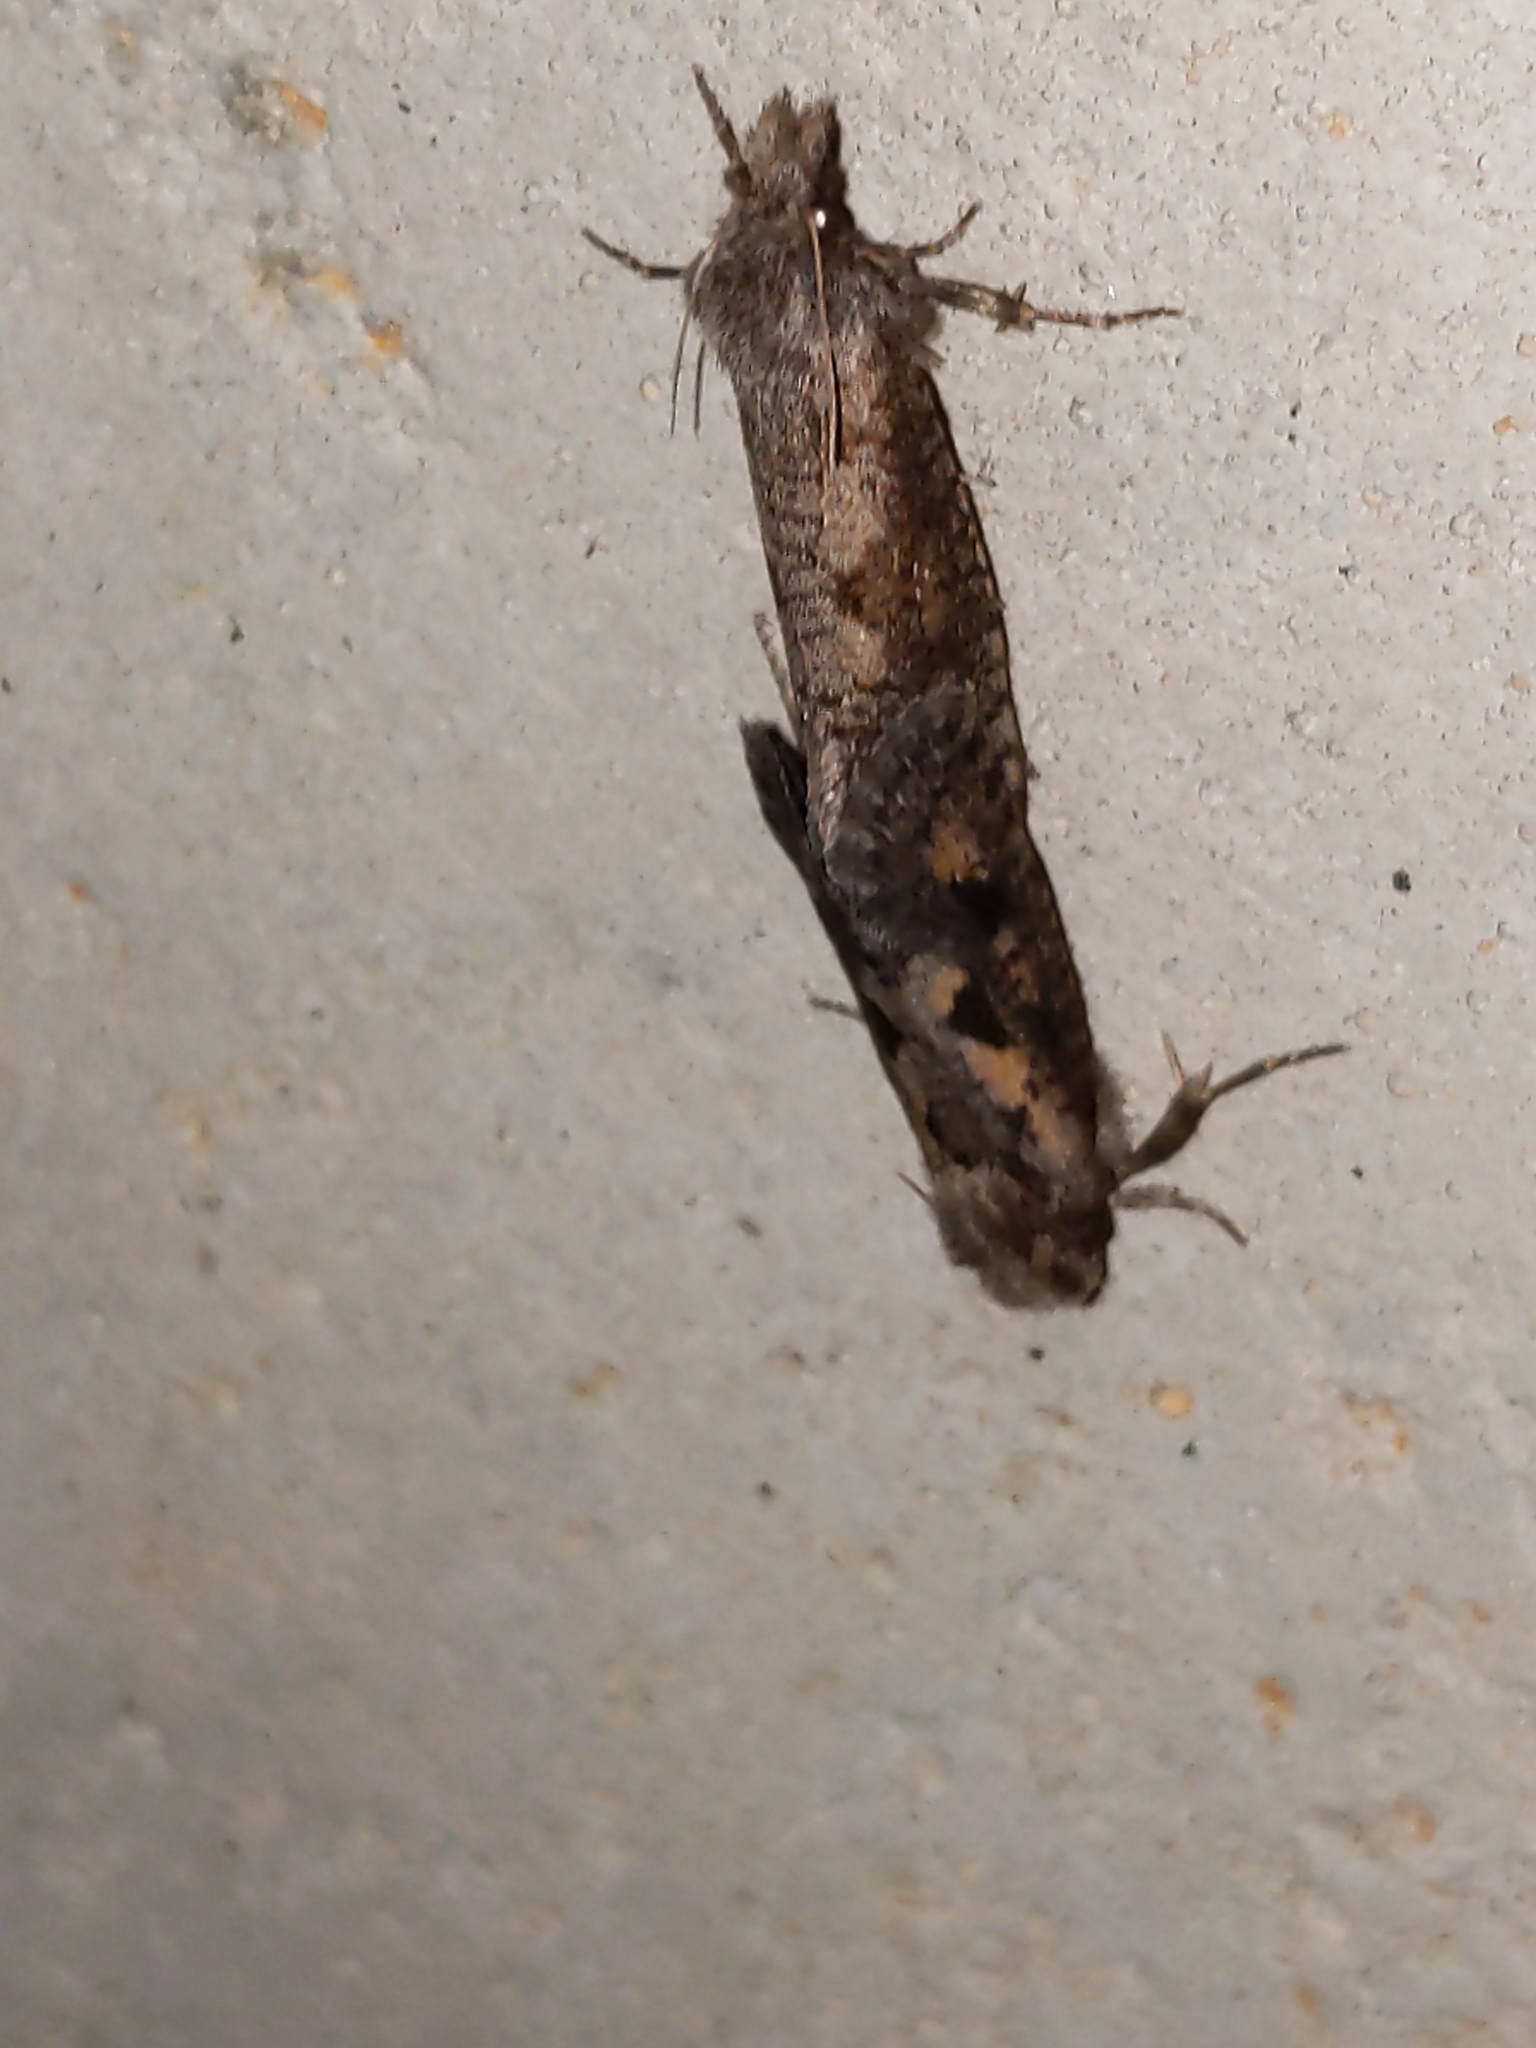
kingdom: Animalia
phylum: Arthropoda
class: Insecta
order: Lepidoptera
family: Tineidae
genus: Acrolophus
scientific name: Acrolophus popeanella
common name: Clemens' grass tubeworm moth
